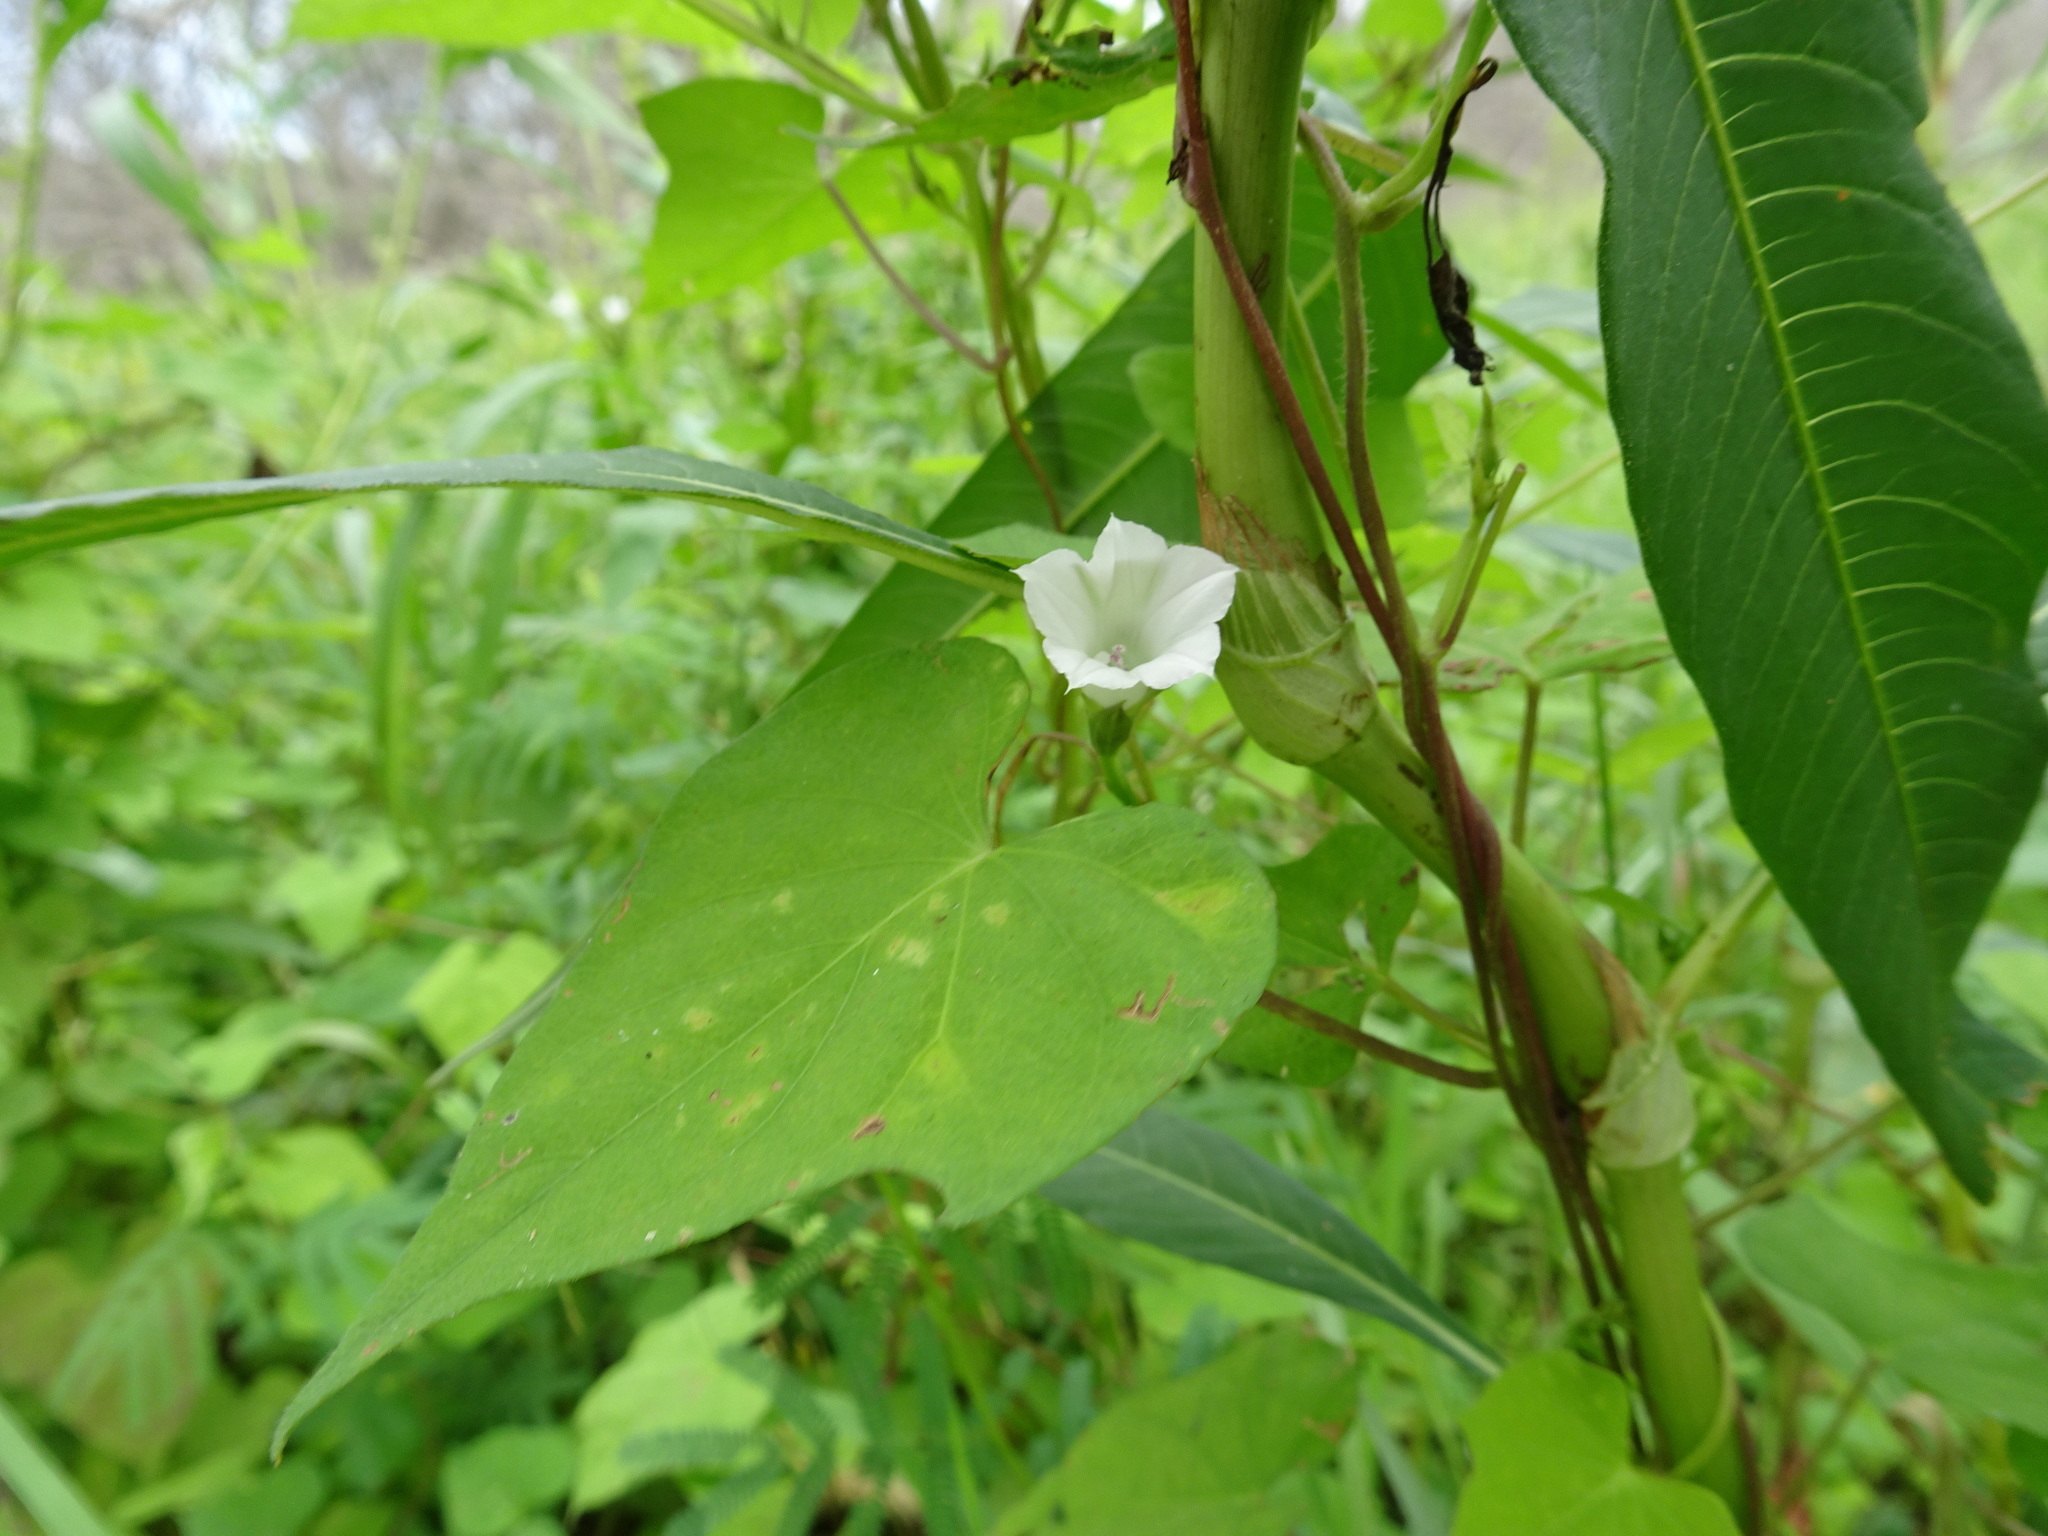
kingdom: Plantae
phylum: Tracheophyta
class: Magnoliopsida
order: Solanales
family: Convolvulaceae
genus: Ipomoea
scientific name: Ipomoea lacunosa
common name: White morning-glory
